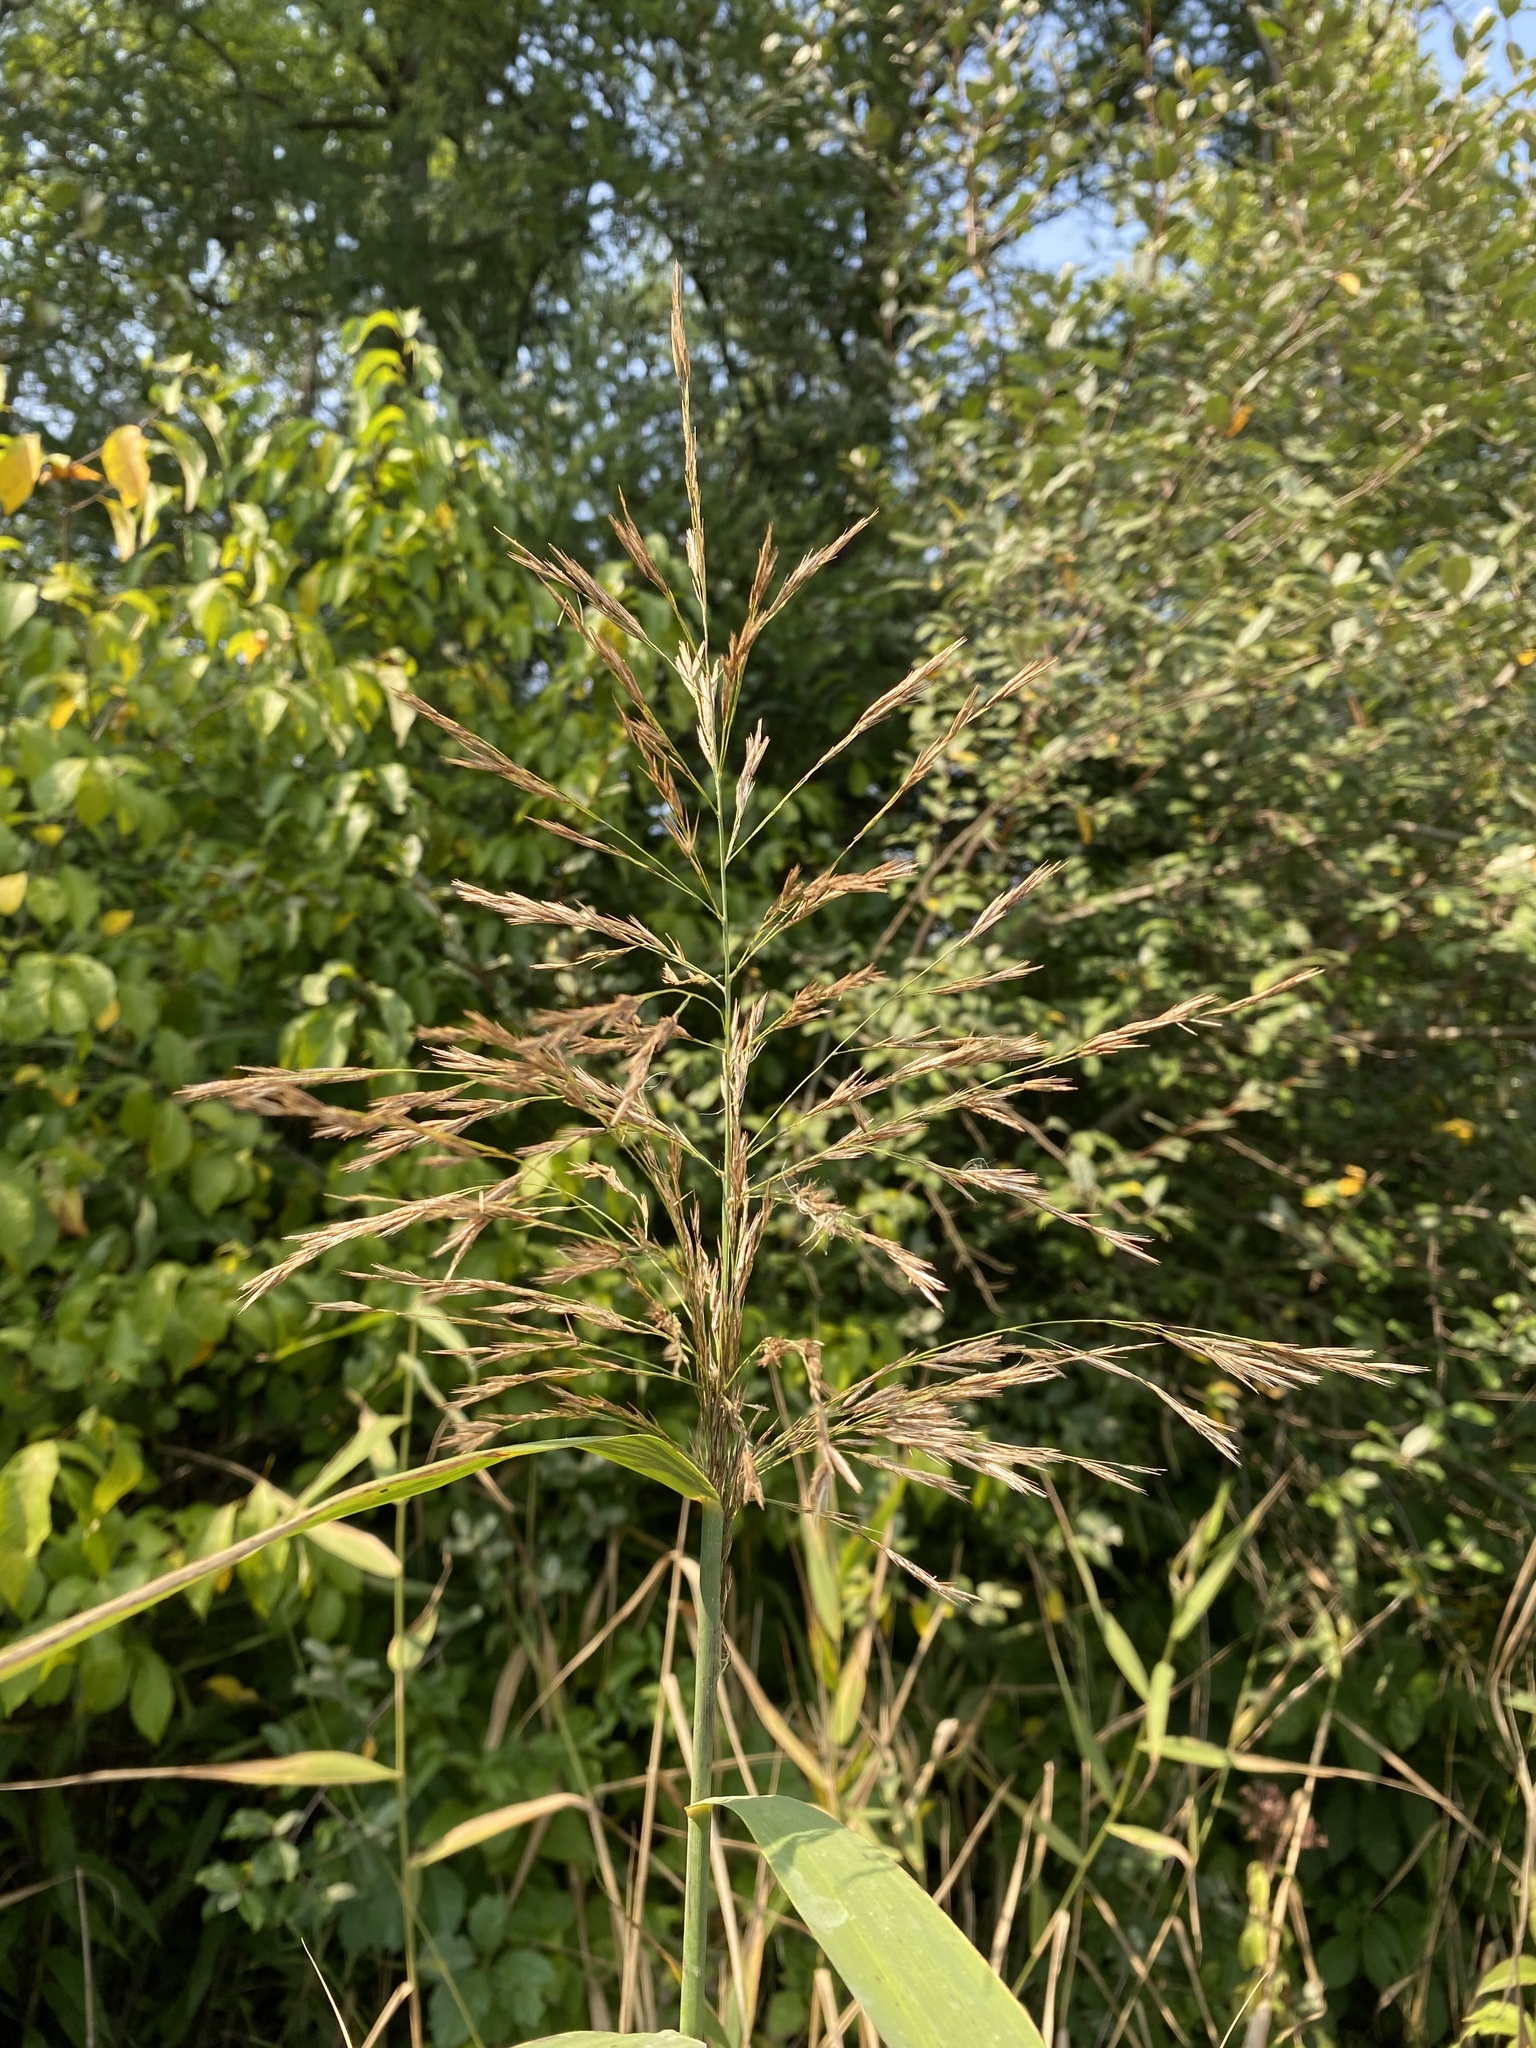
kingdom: Plantae
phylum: Tracheophyta
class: Liliopsida
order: Poales
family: Poaceae
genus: Phragmites
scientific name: Phragmites australis
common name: Common reed
